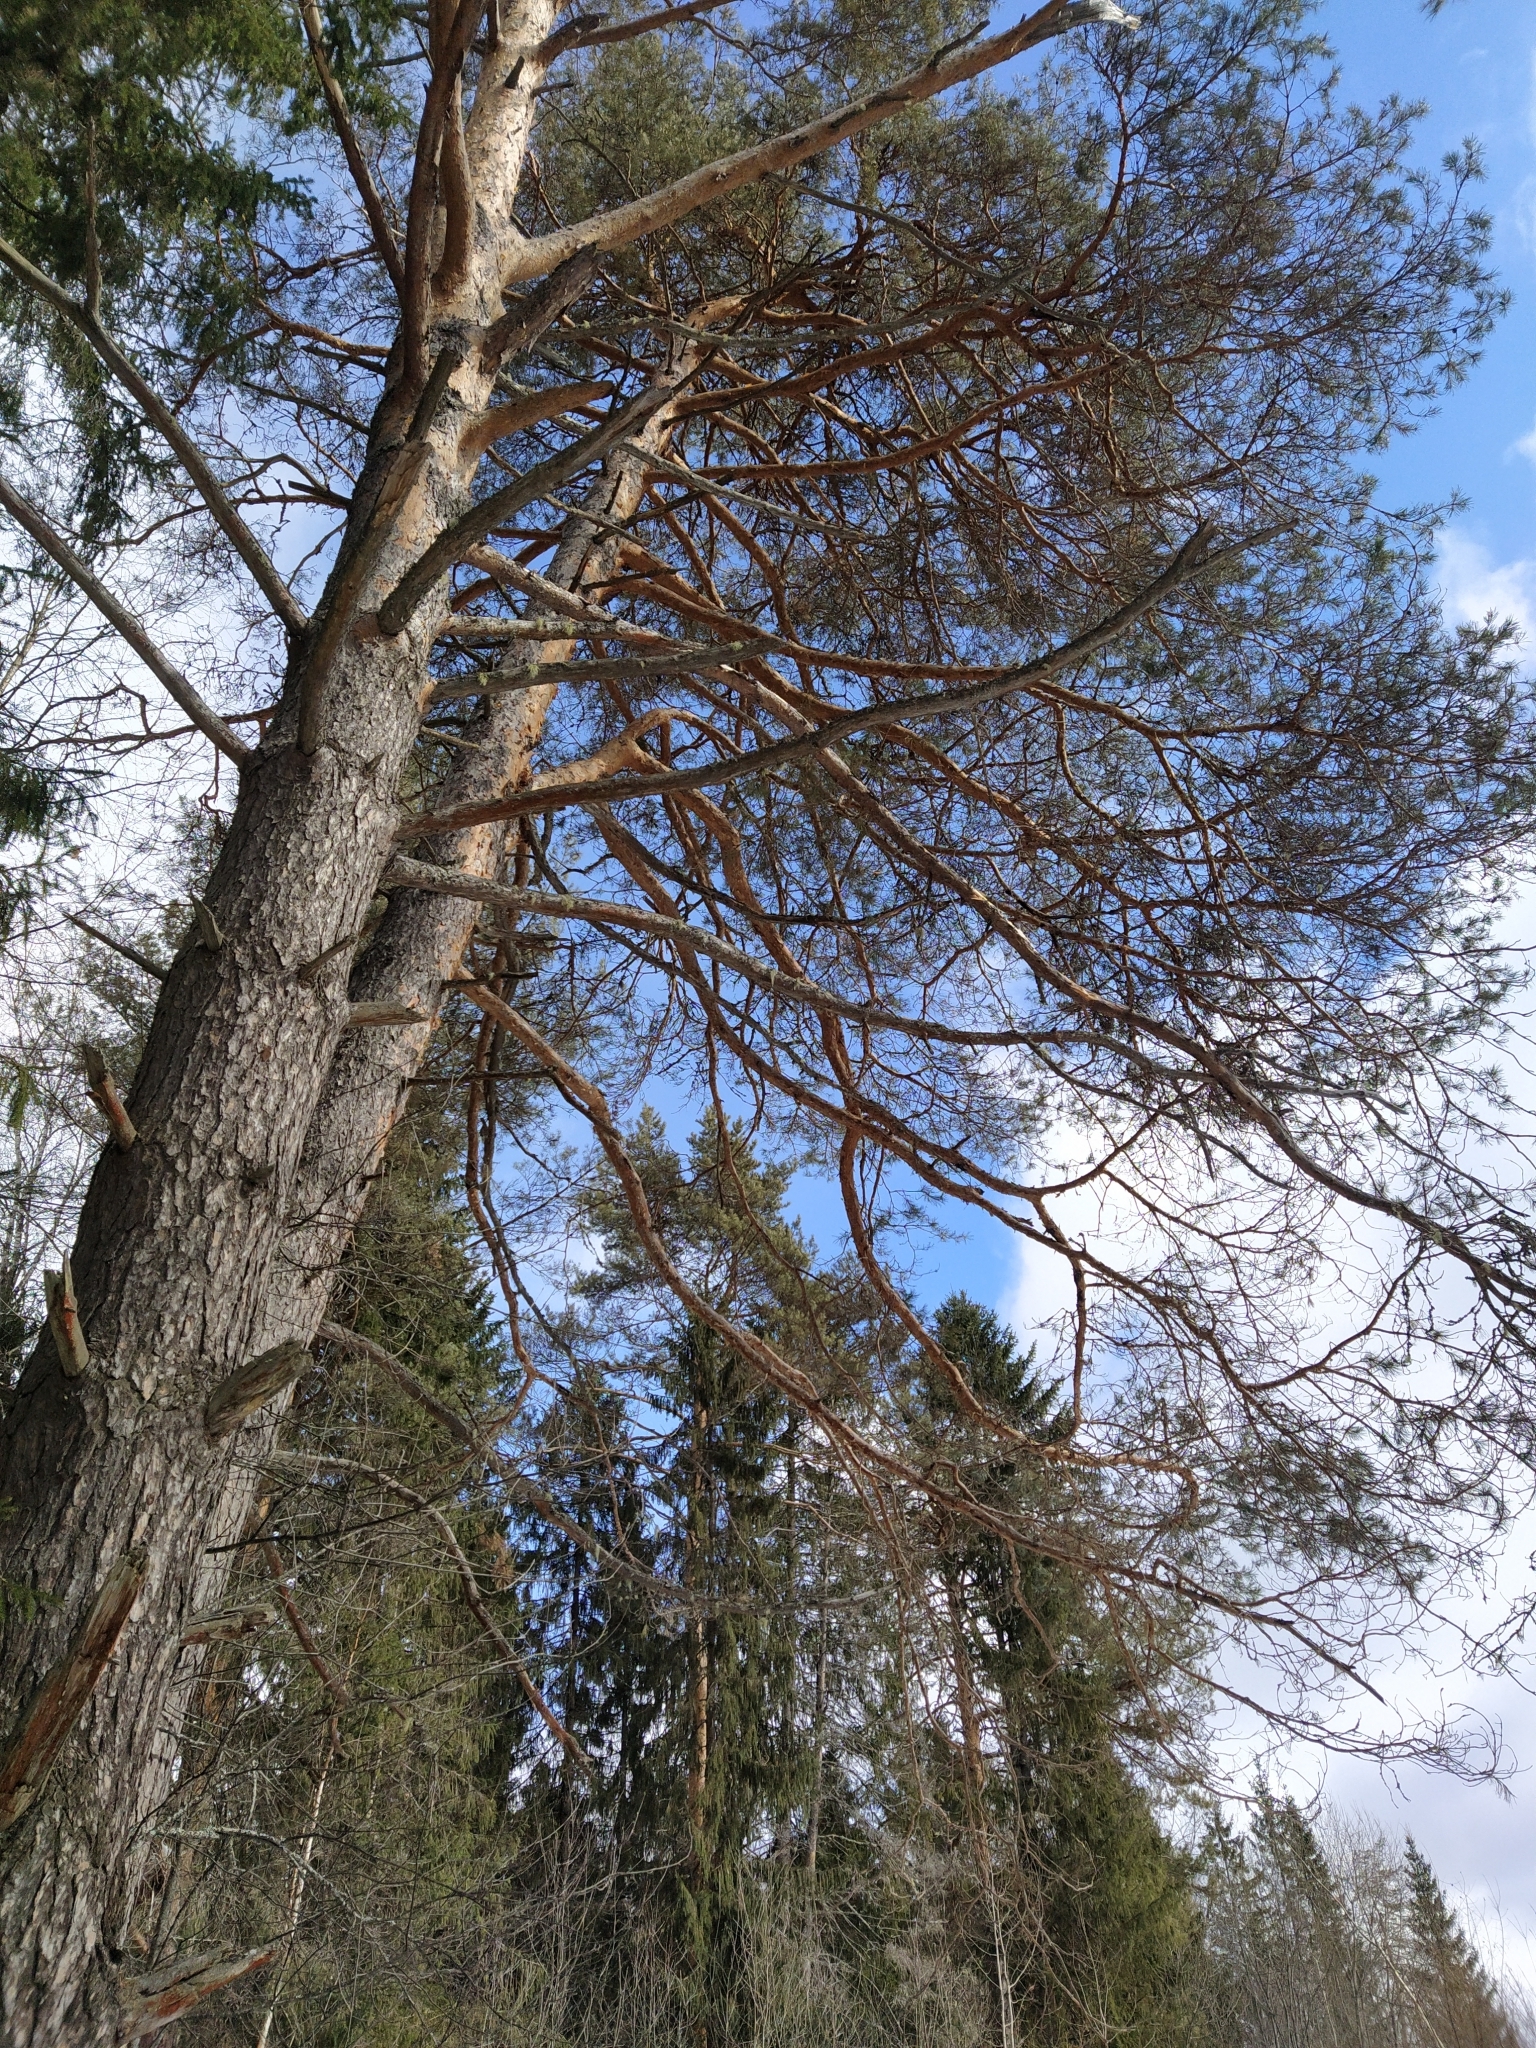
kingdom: Plantae
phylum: Tracheophyta
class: Pinopsida
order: Pinales
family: Pinaceae
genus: Pinus
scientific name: Pinus sylvestris
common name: Scots pine
